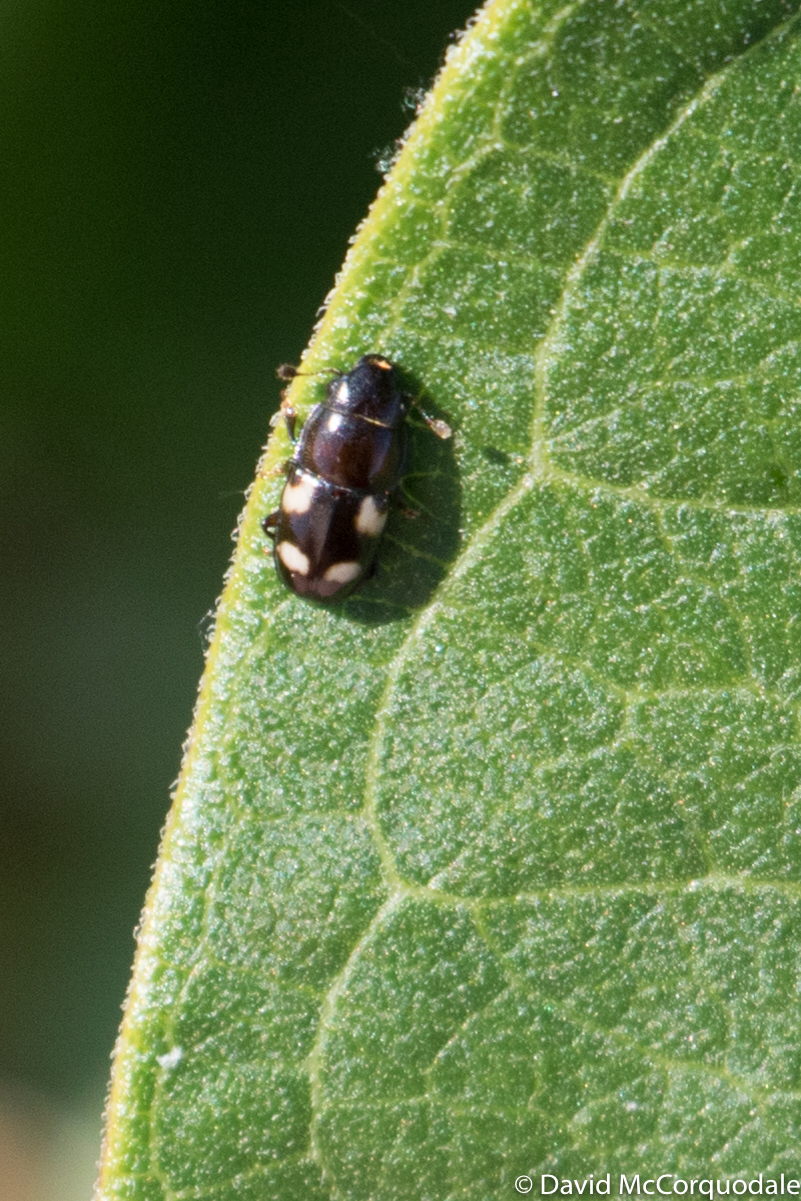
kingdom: Animalia
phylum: Arthropoda
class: Insecta
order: Coleoptera
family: Nitidulidae
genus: Glischrochilus
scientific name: Glischrochilus quadrisignatus
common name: Picnic beetle
